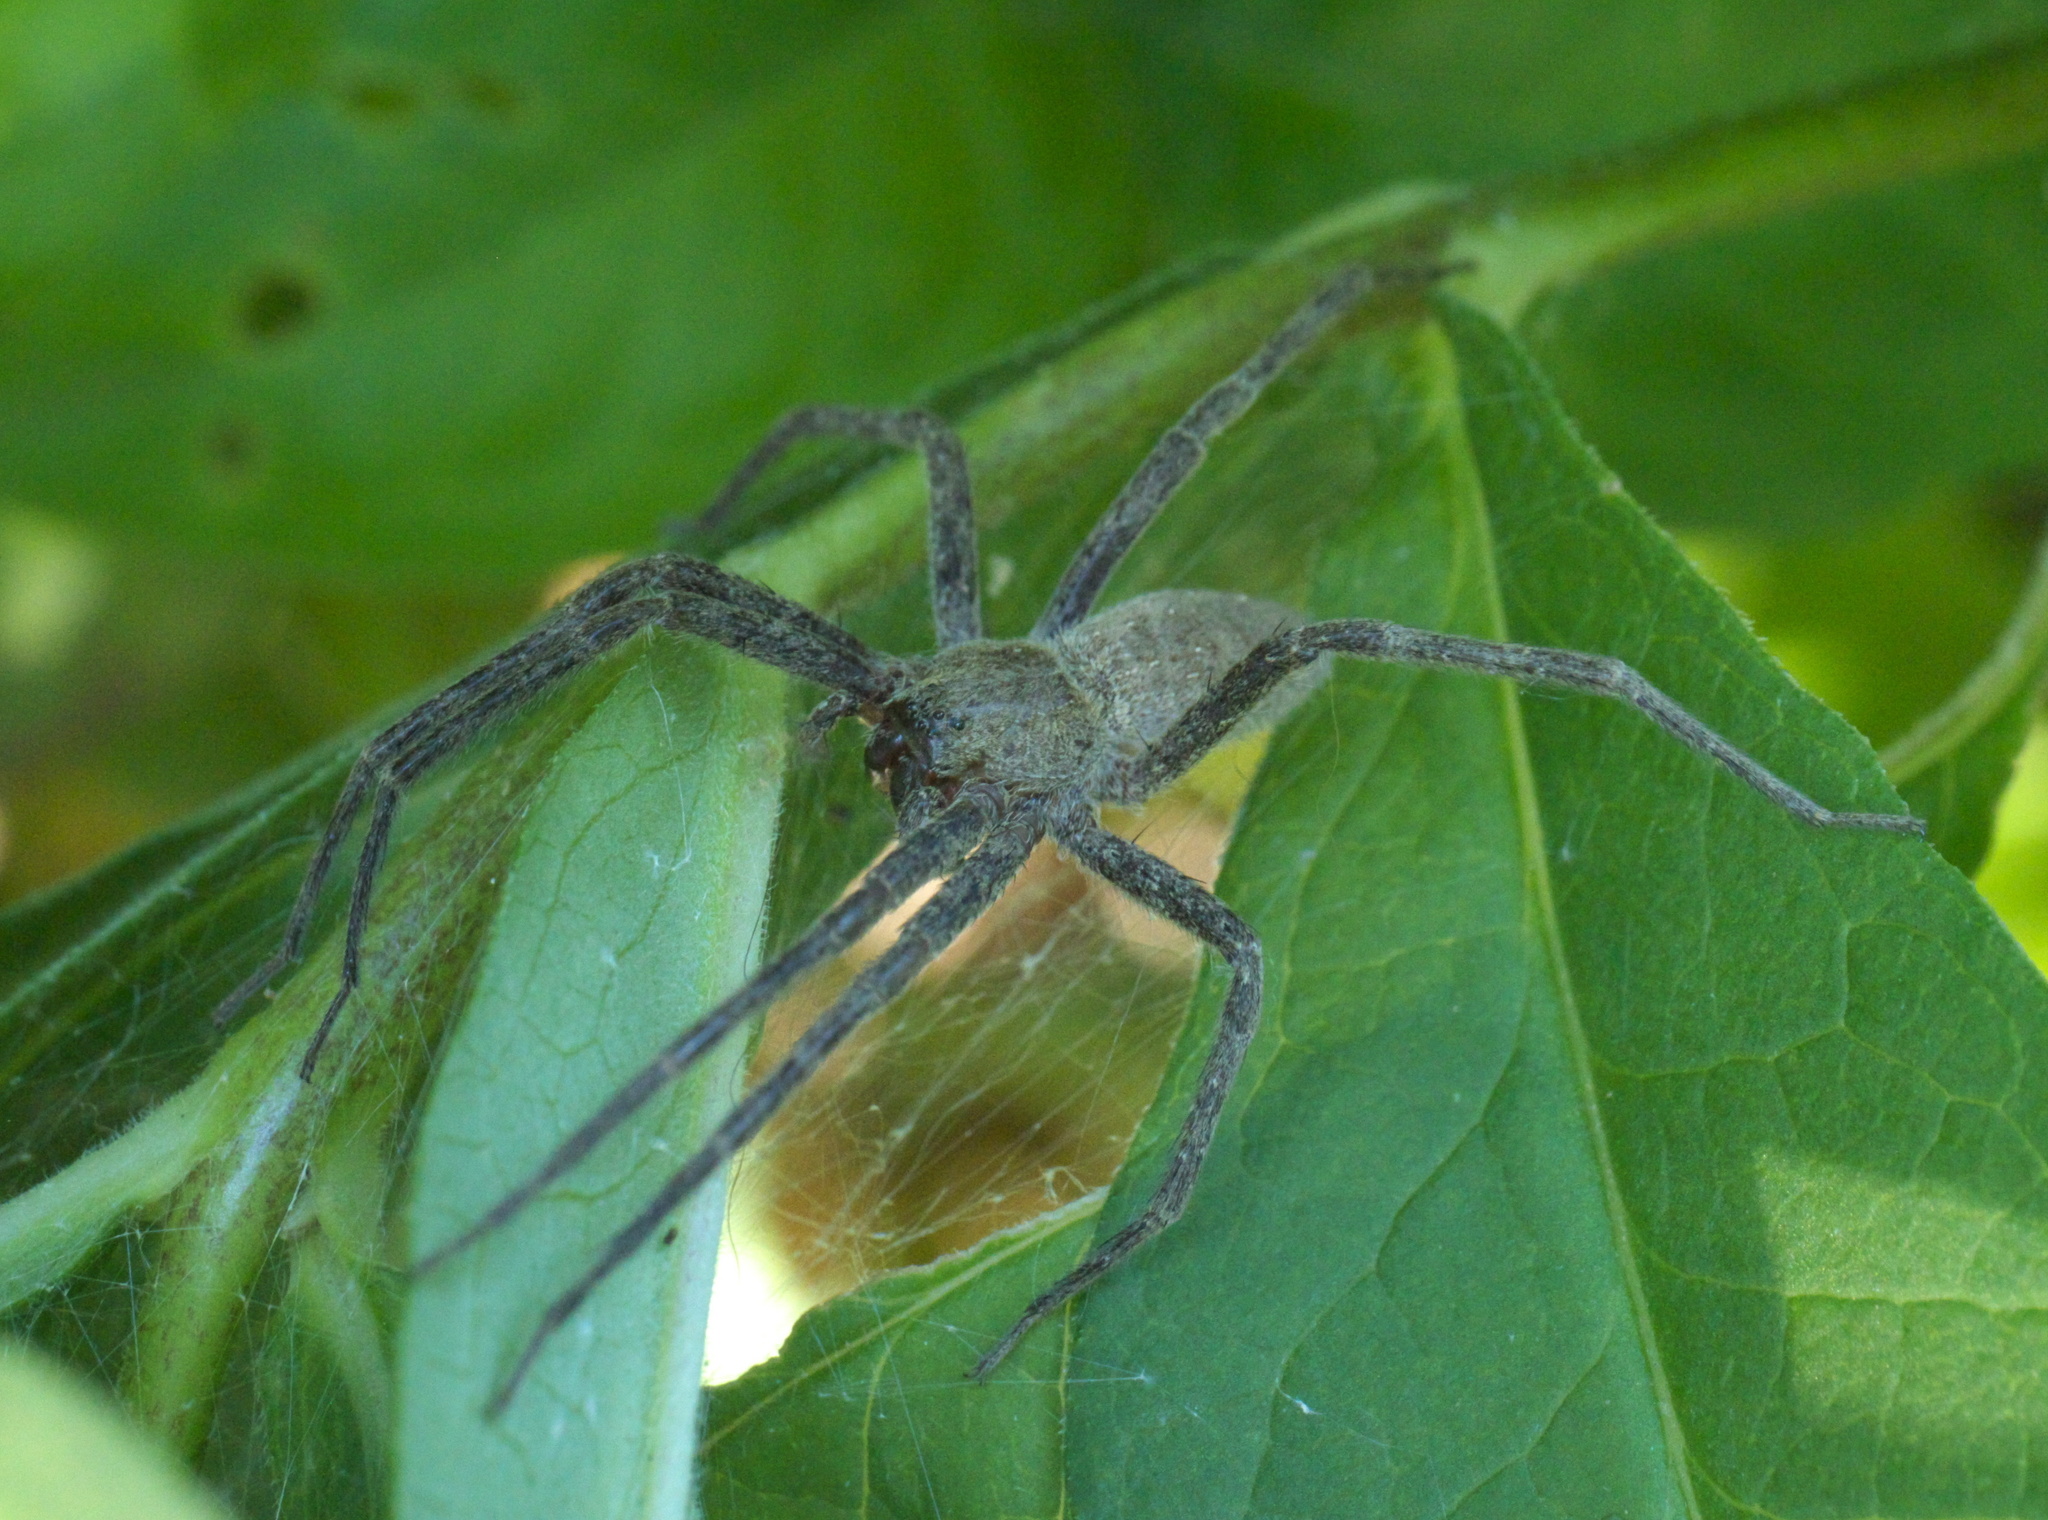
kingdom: Animalia
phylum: Arthropoda
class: Arachnida
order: Araneae
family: Pisauridae
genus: Pisaurina
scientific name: Pisaurina mira
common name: American nursery web spider
